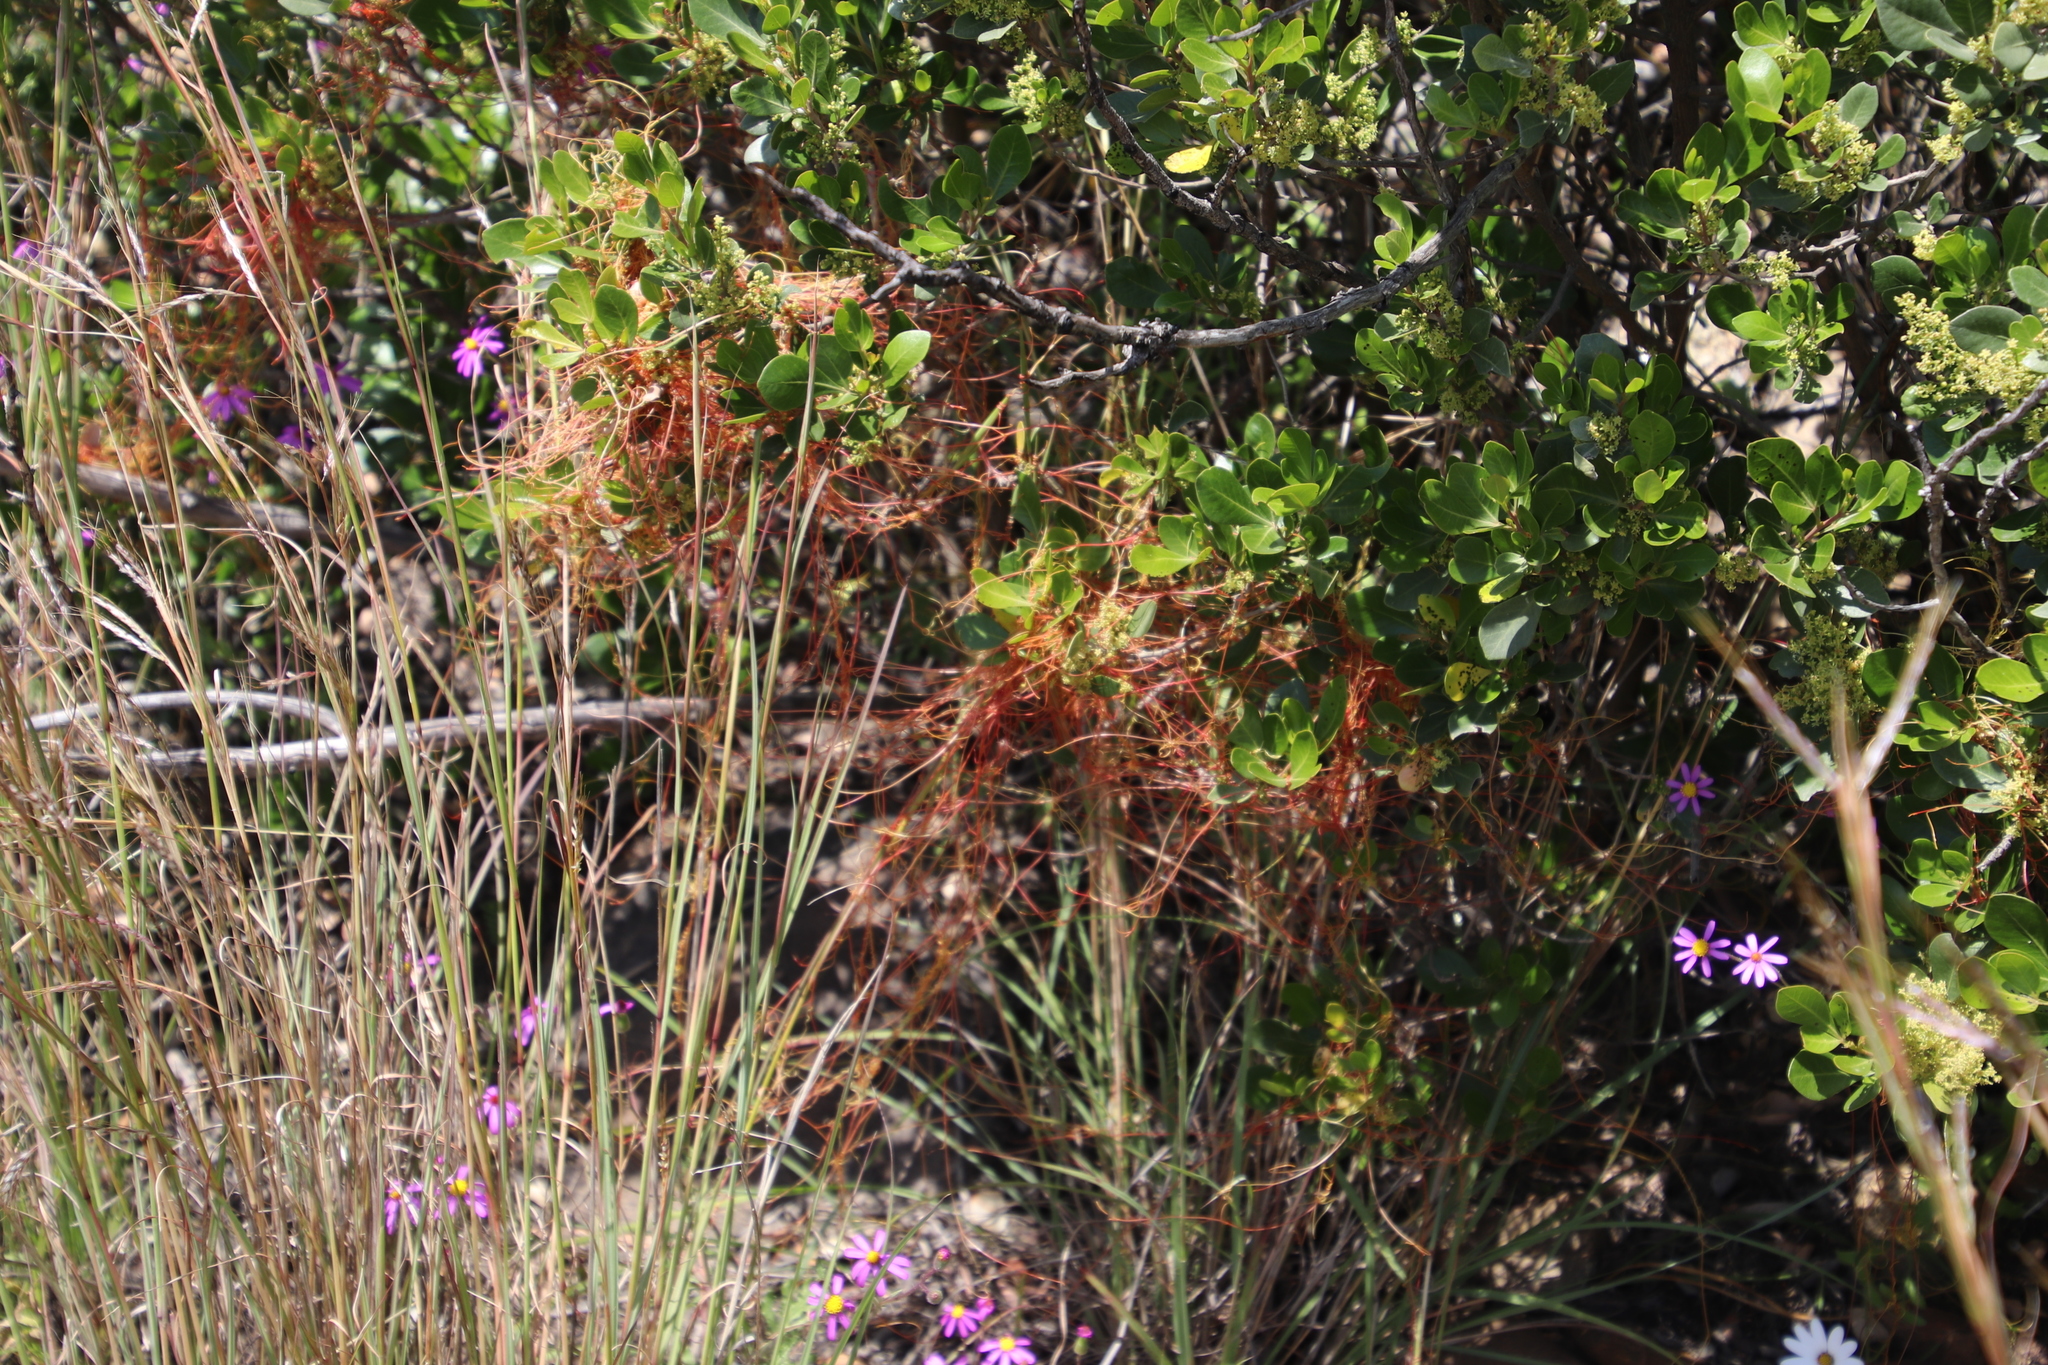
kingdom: Plantae
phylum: Tracheophyta
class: Magnoliopsida
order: Solanales
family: Convolvulaceae
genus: Cuscuta
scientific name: Cuscuta nitida
